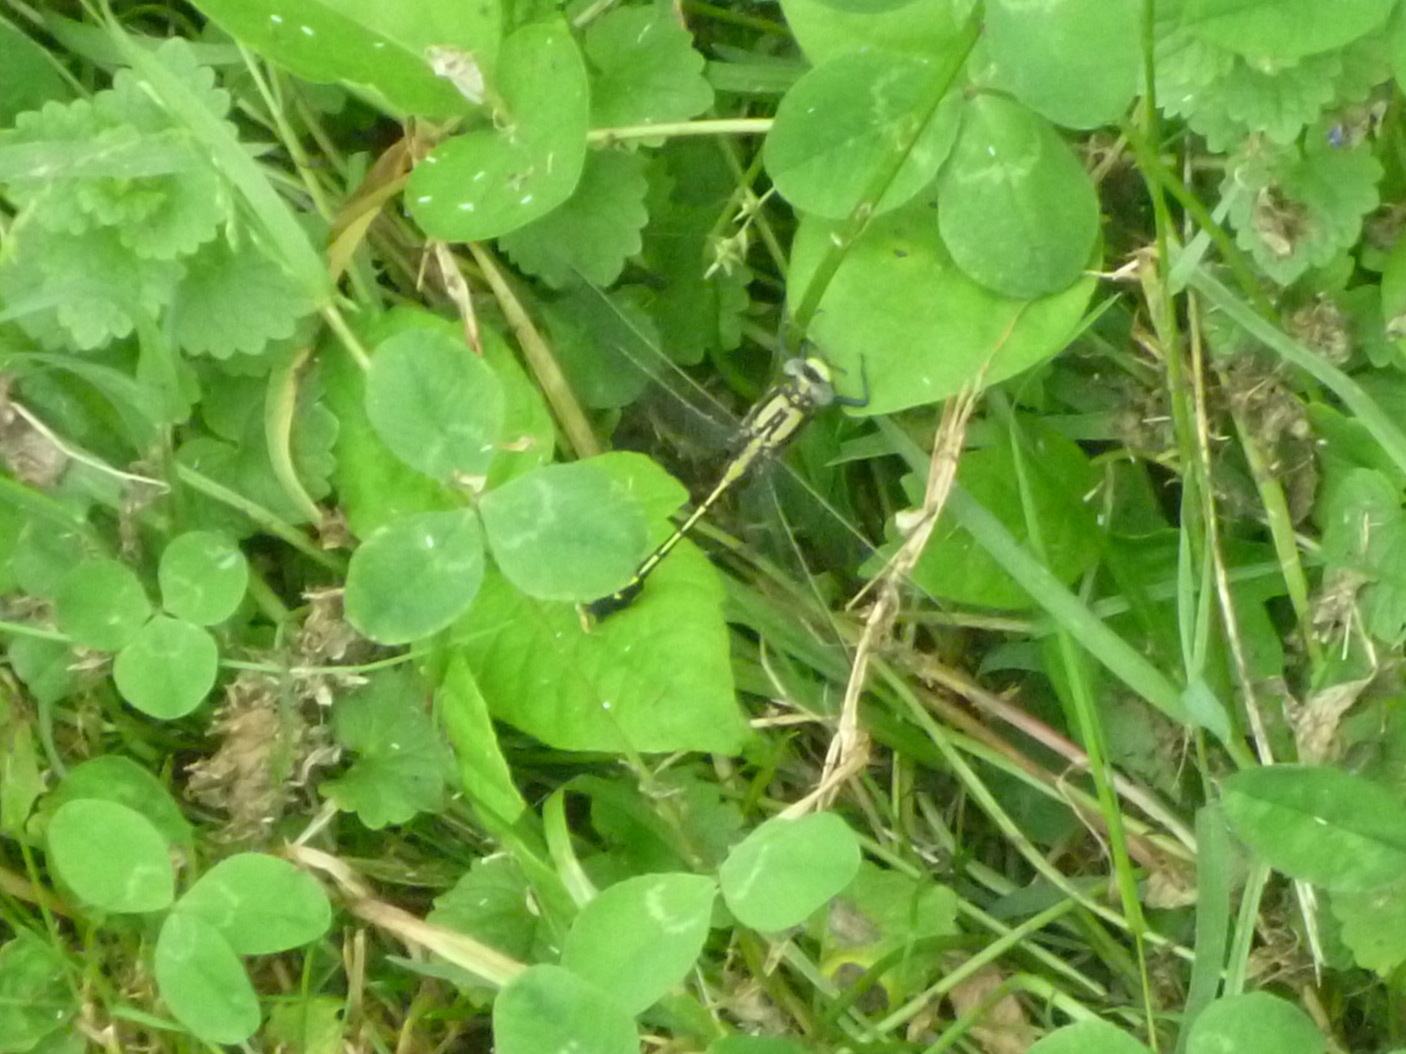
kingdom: Animalia
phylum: Arthropoda
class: Insecta
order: Odonata
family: Gomphidae
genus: Gomphurus
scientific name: Gomphurus fraternus
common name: Midland clubtail
